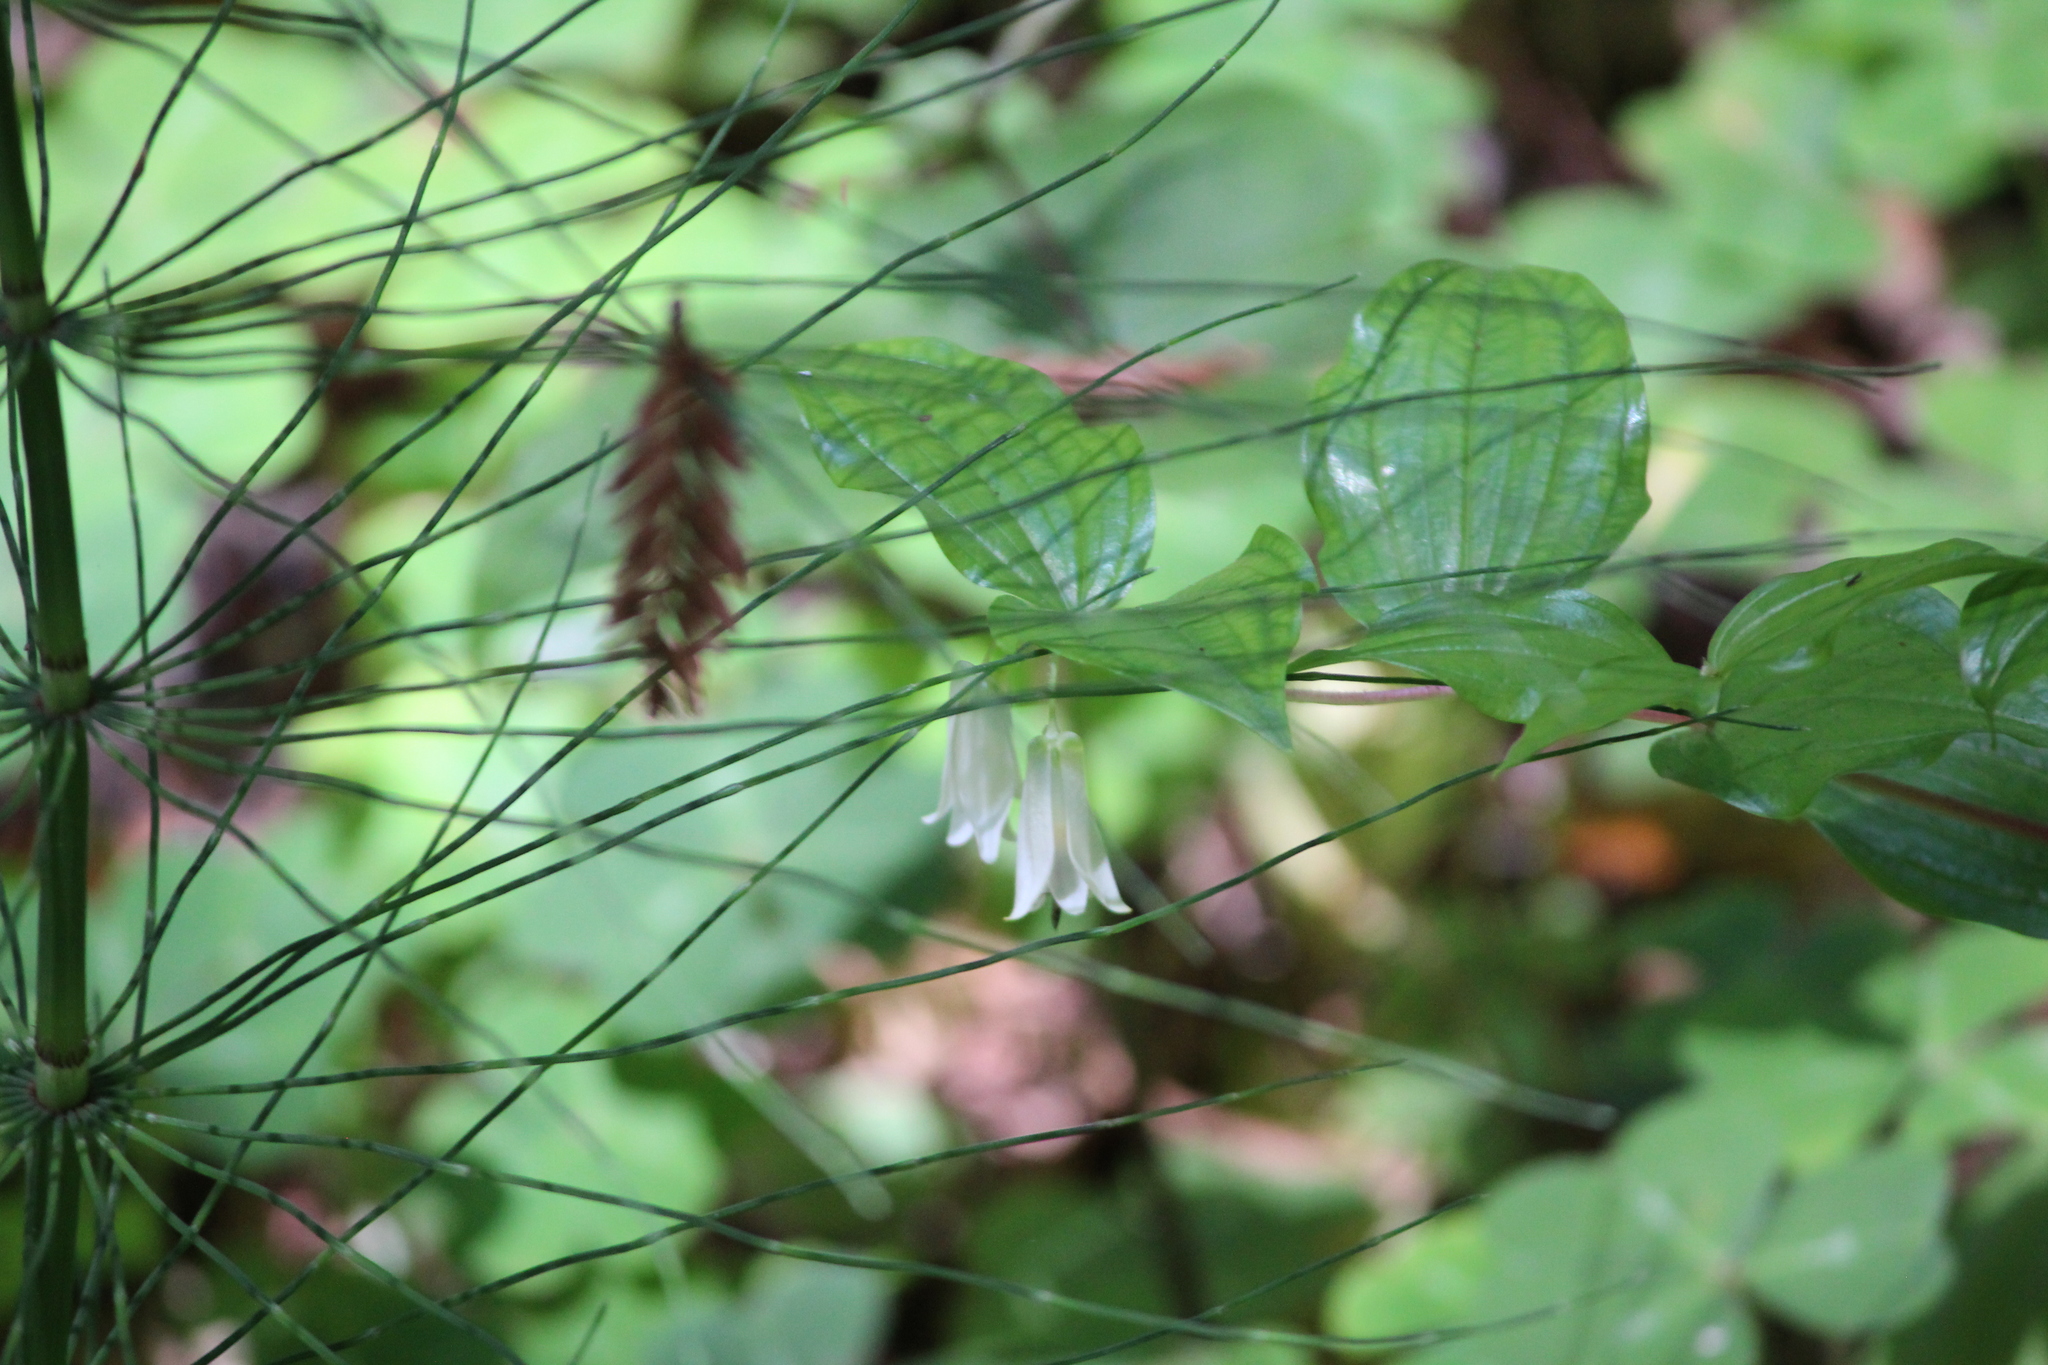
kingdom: Plantae
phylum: Tracheophyta
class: Liliopsida
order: Liliales
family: Liliaceae
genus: Prosartes
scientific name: Prosartes smithii
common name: Fairy-lantern
